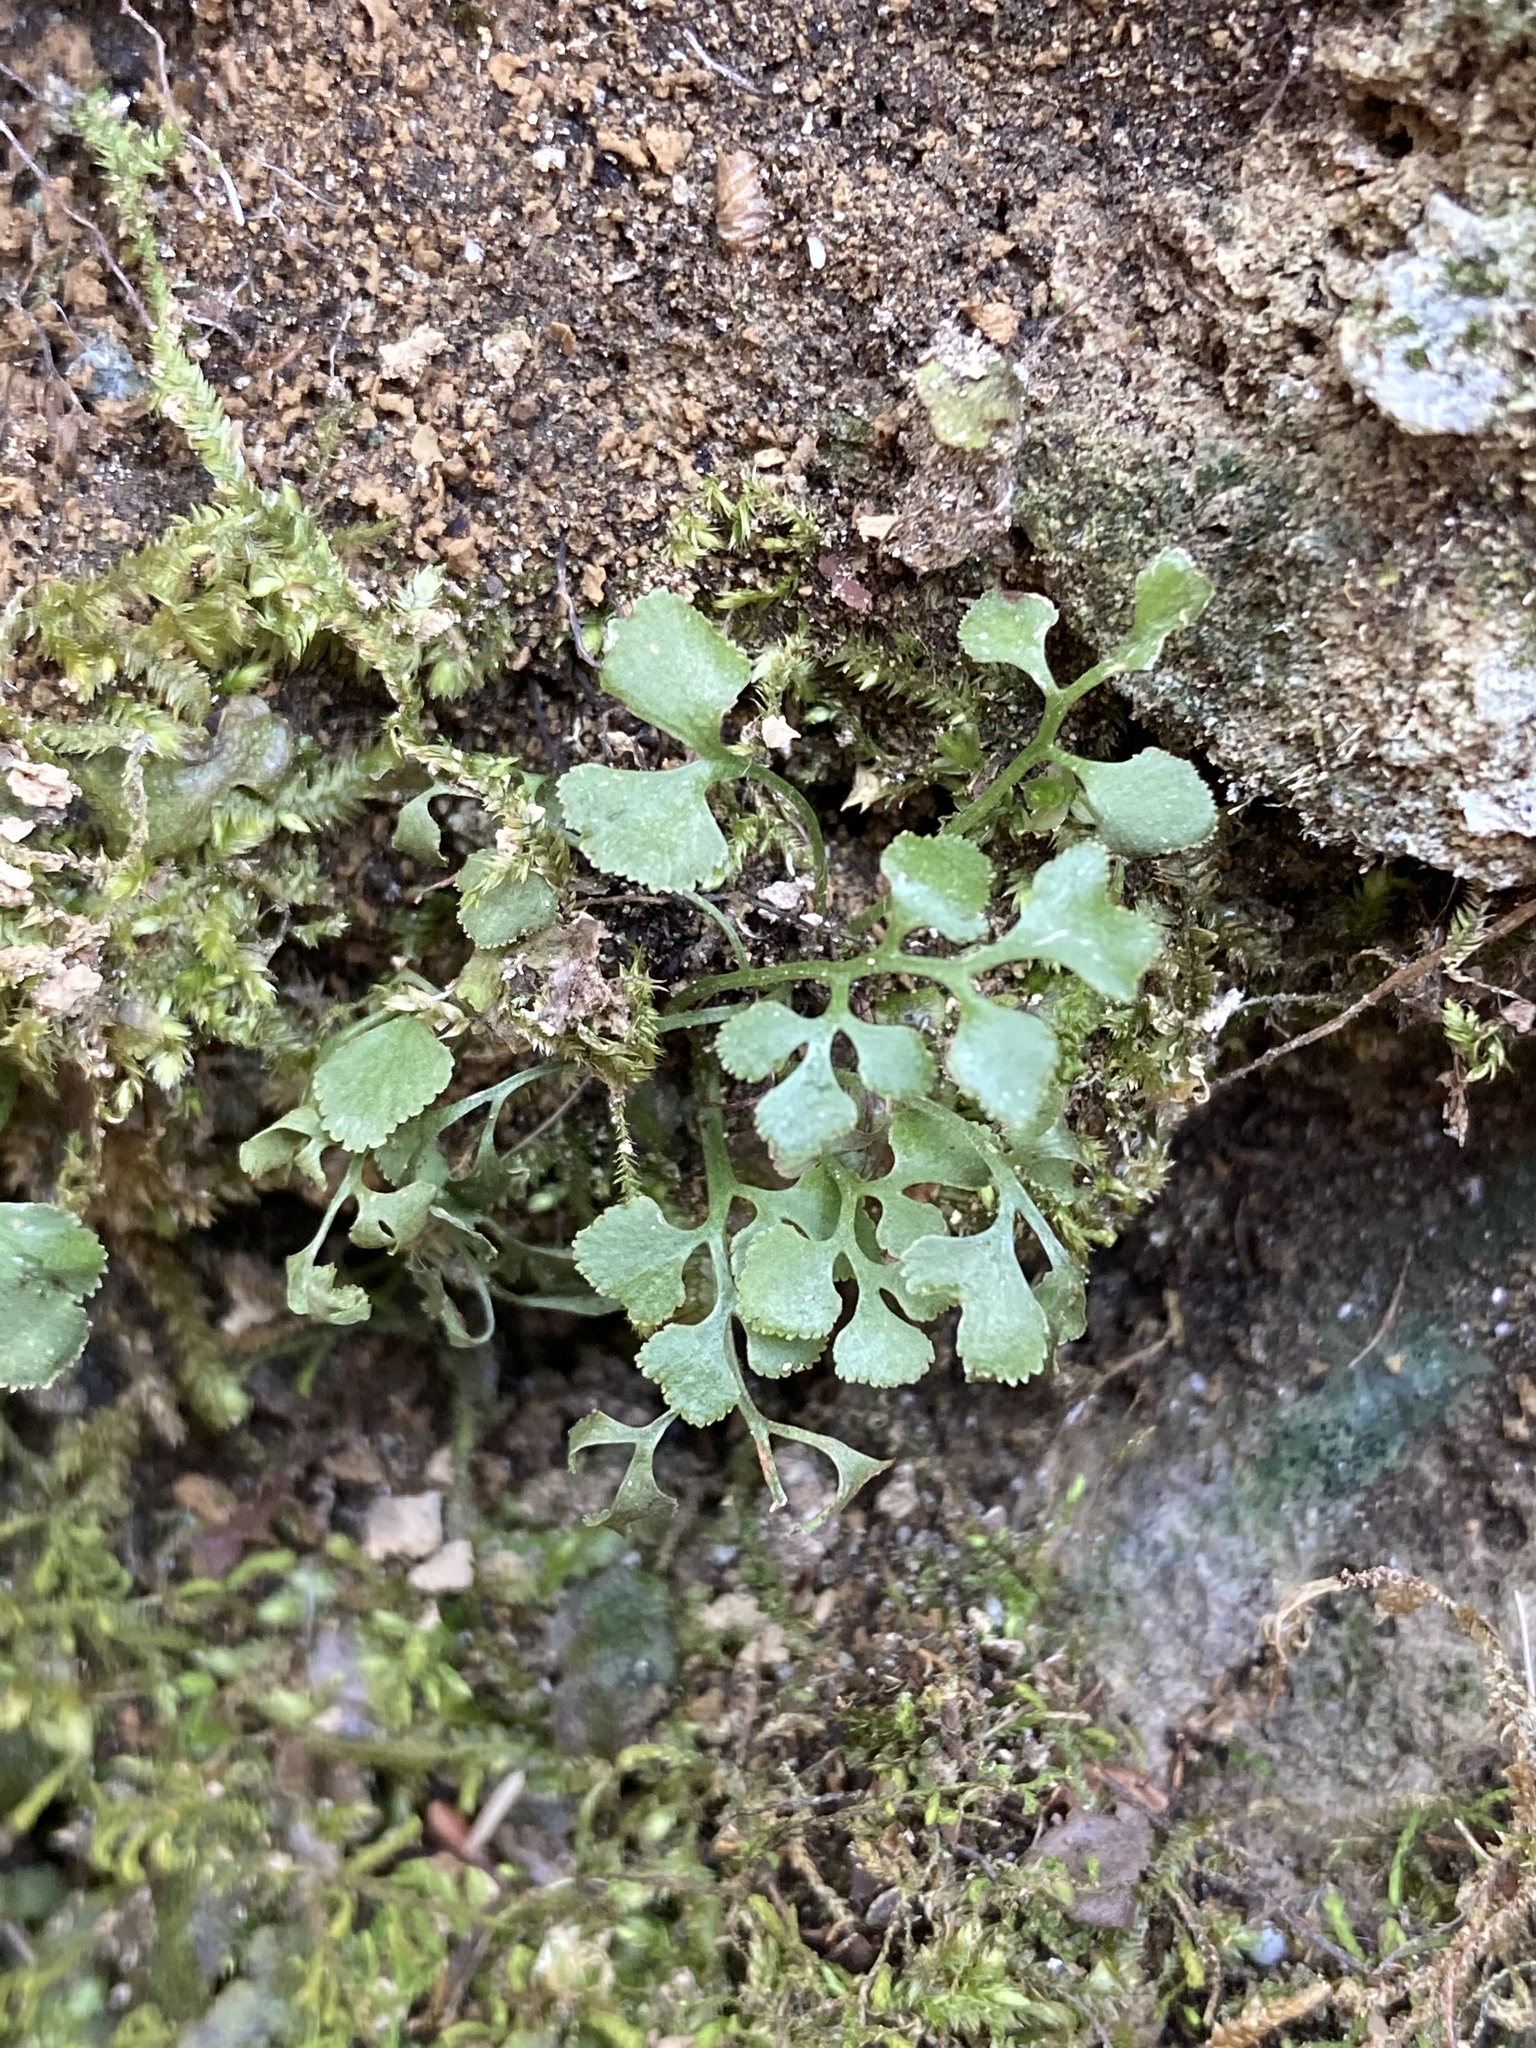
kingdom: Plantae
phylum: Tracheophyta
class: Polypodiopsida
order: Polypodiales
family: Aspleniaceae
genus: Asplenium
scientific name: Asplenium ruta-muraria
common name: Wall-rue
